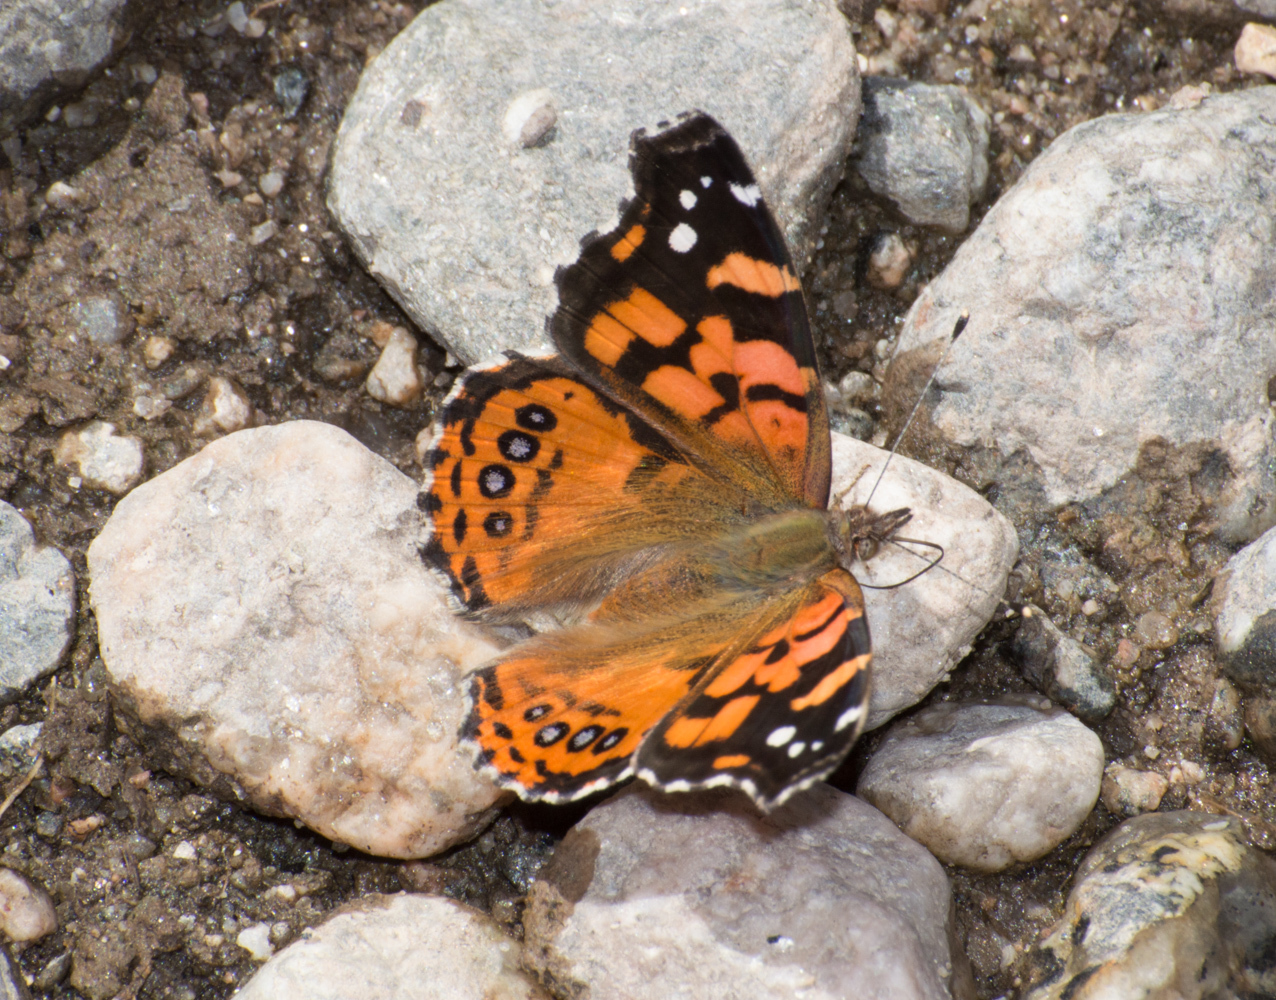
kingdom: Animalia
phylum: Arthropoda
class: Insecta
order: Lepidoptera
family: Nymphalidae
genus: Vanessa
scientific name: Vanessa carye
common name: Subtropical lady
